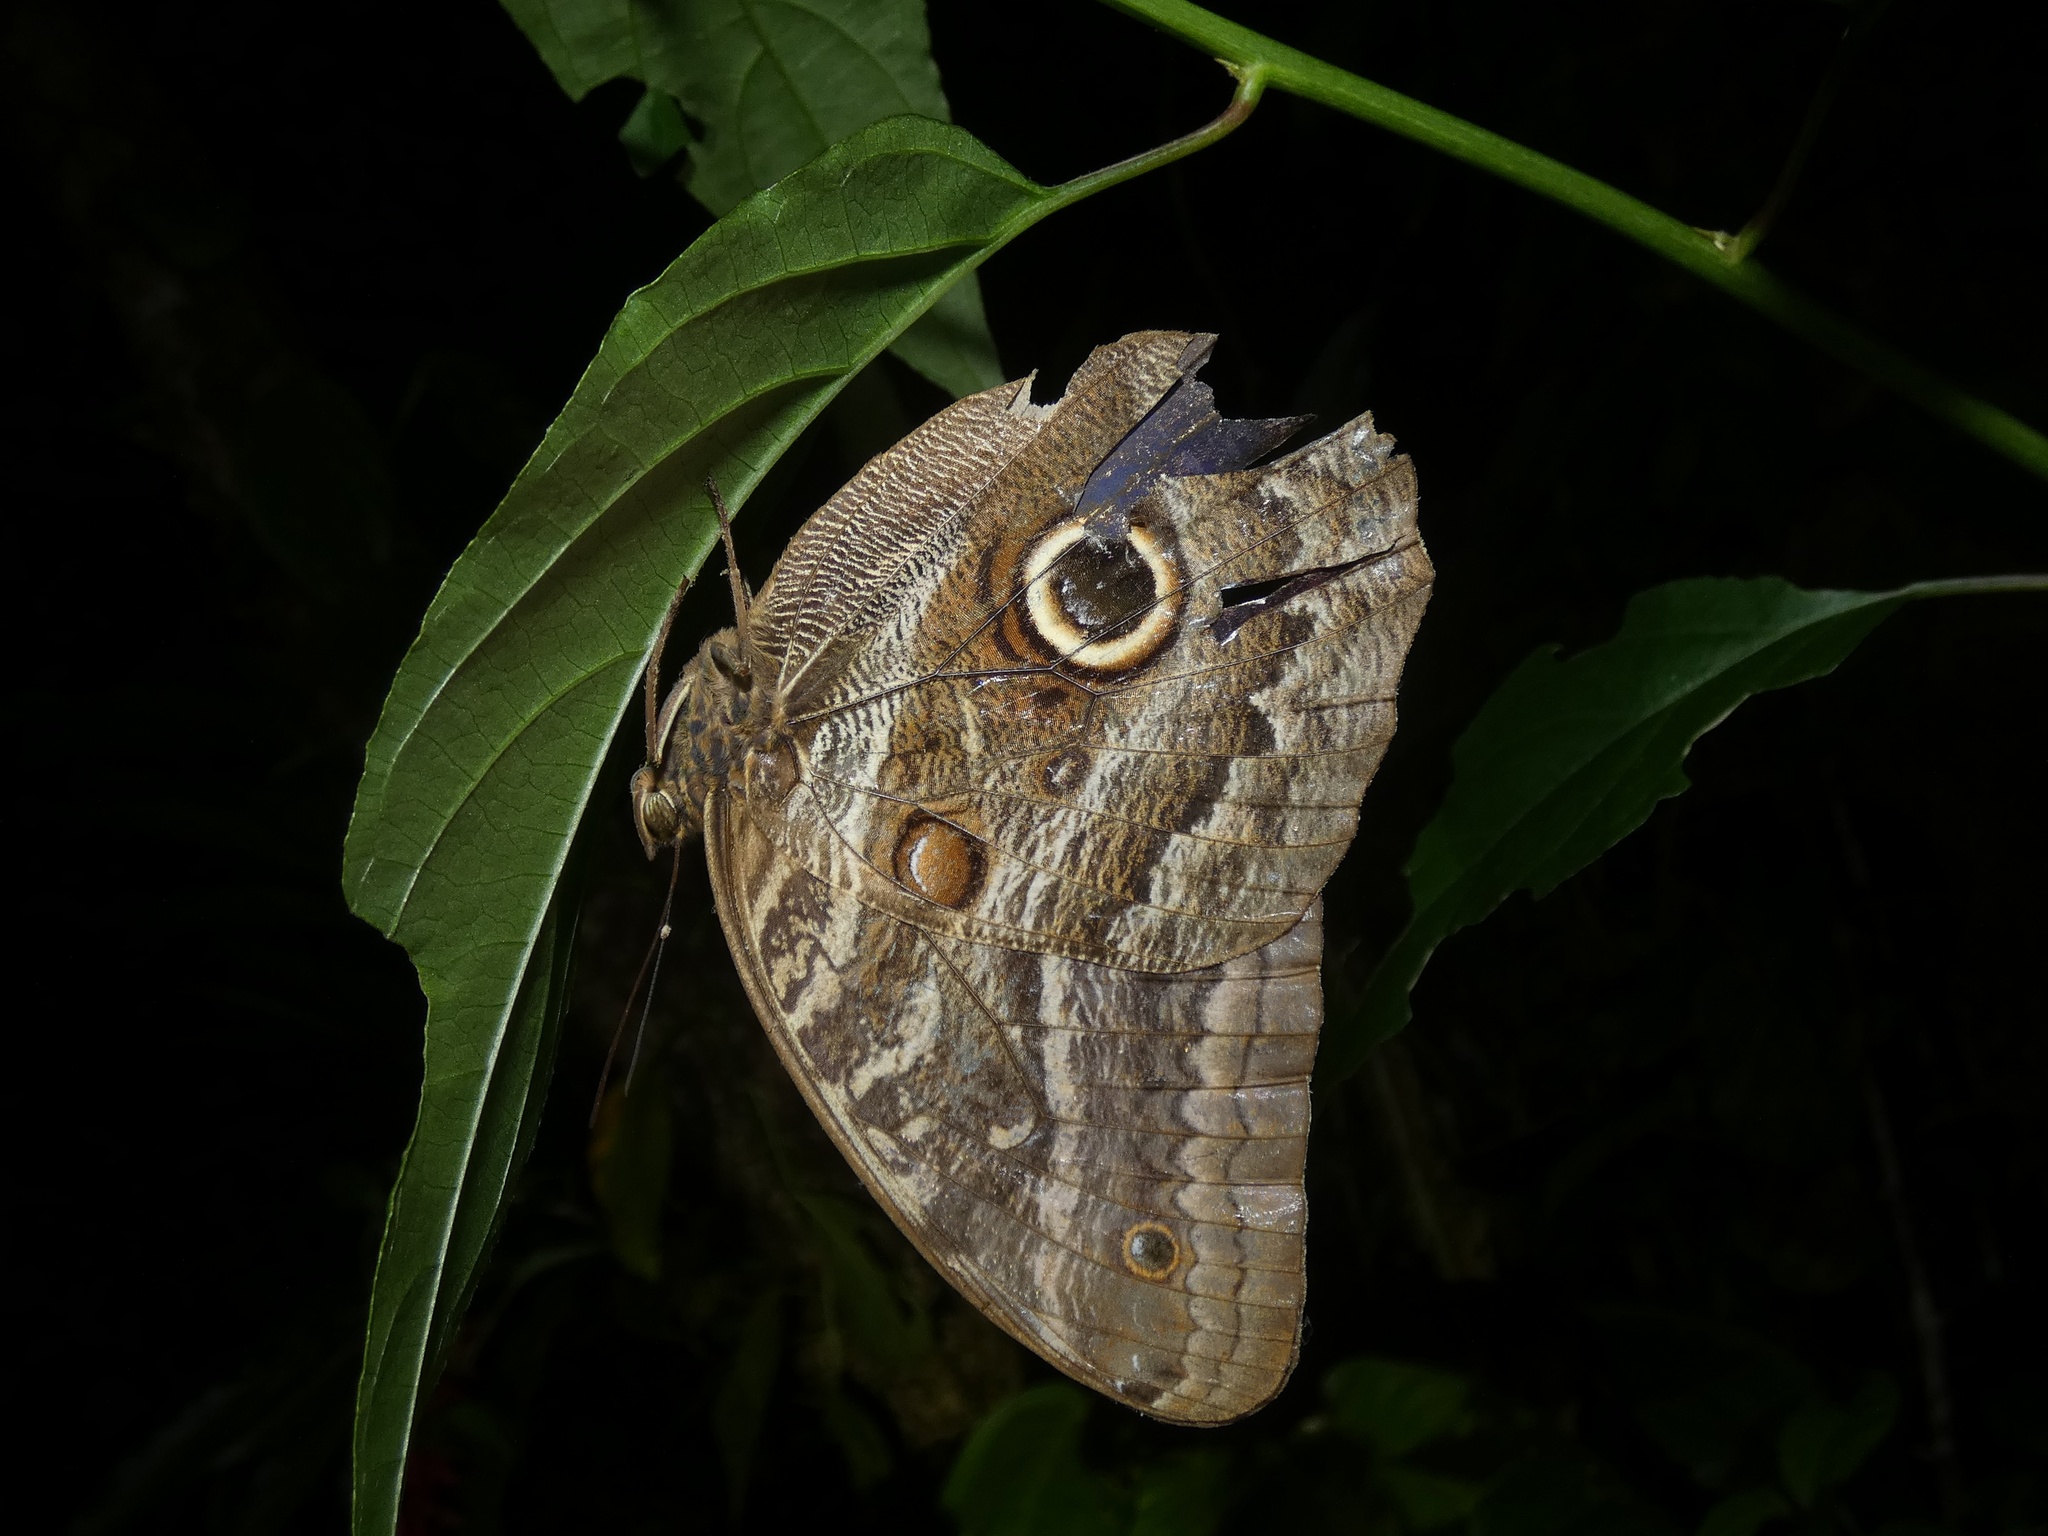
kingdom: Animalia
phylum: Arthropoda
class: Insecta
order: Lepidoptera
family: Nymphalidae
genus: Caligo
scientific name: Caligo telamonius
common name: Pale owl-butterfly
